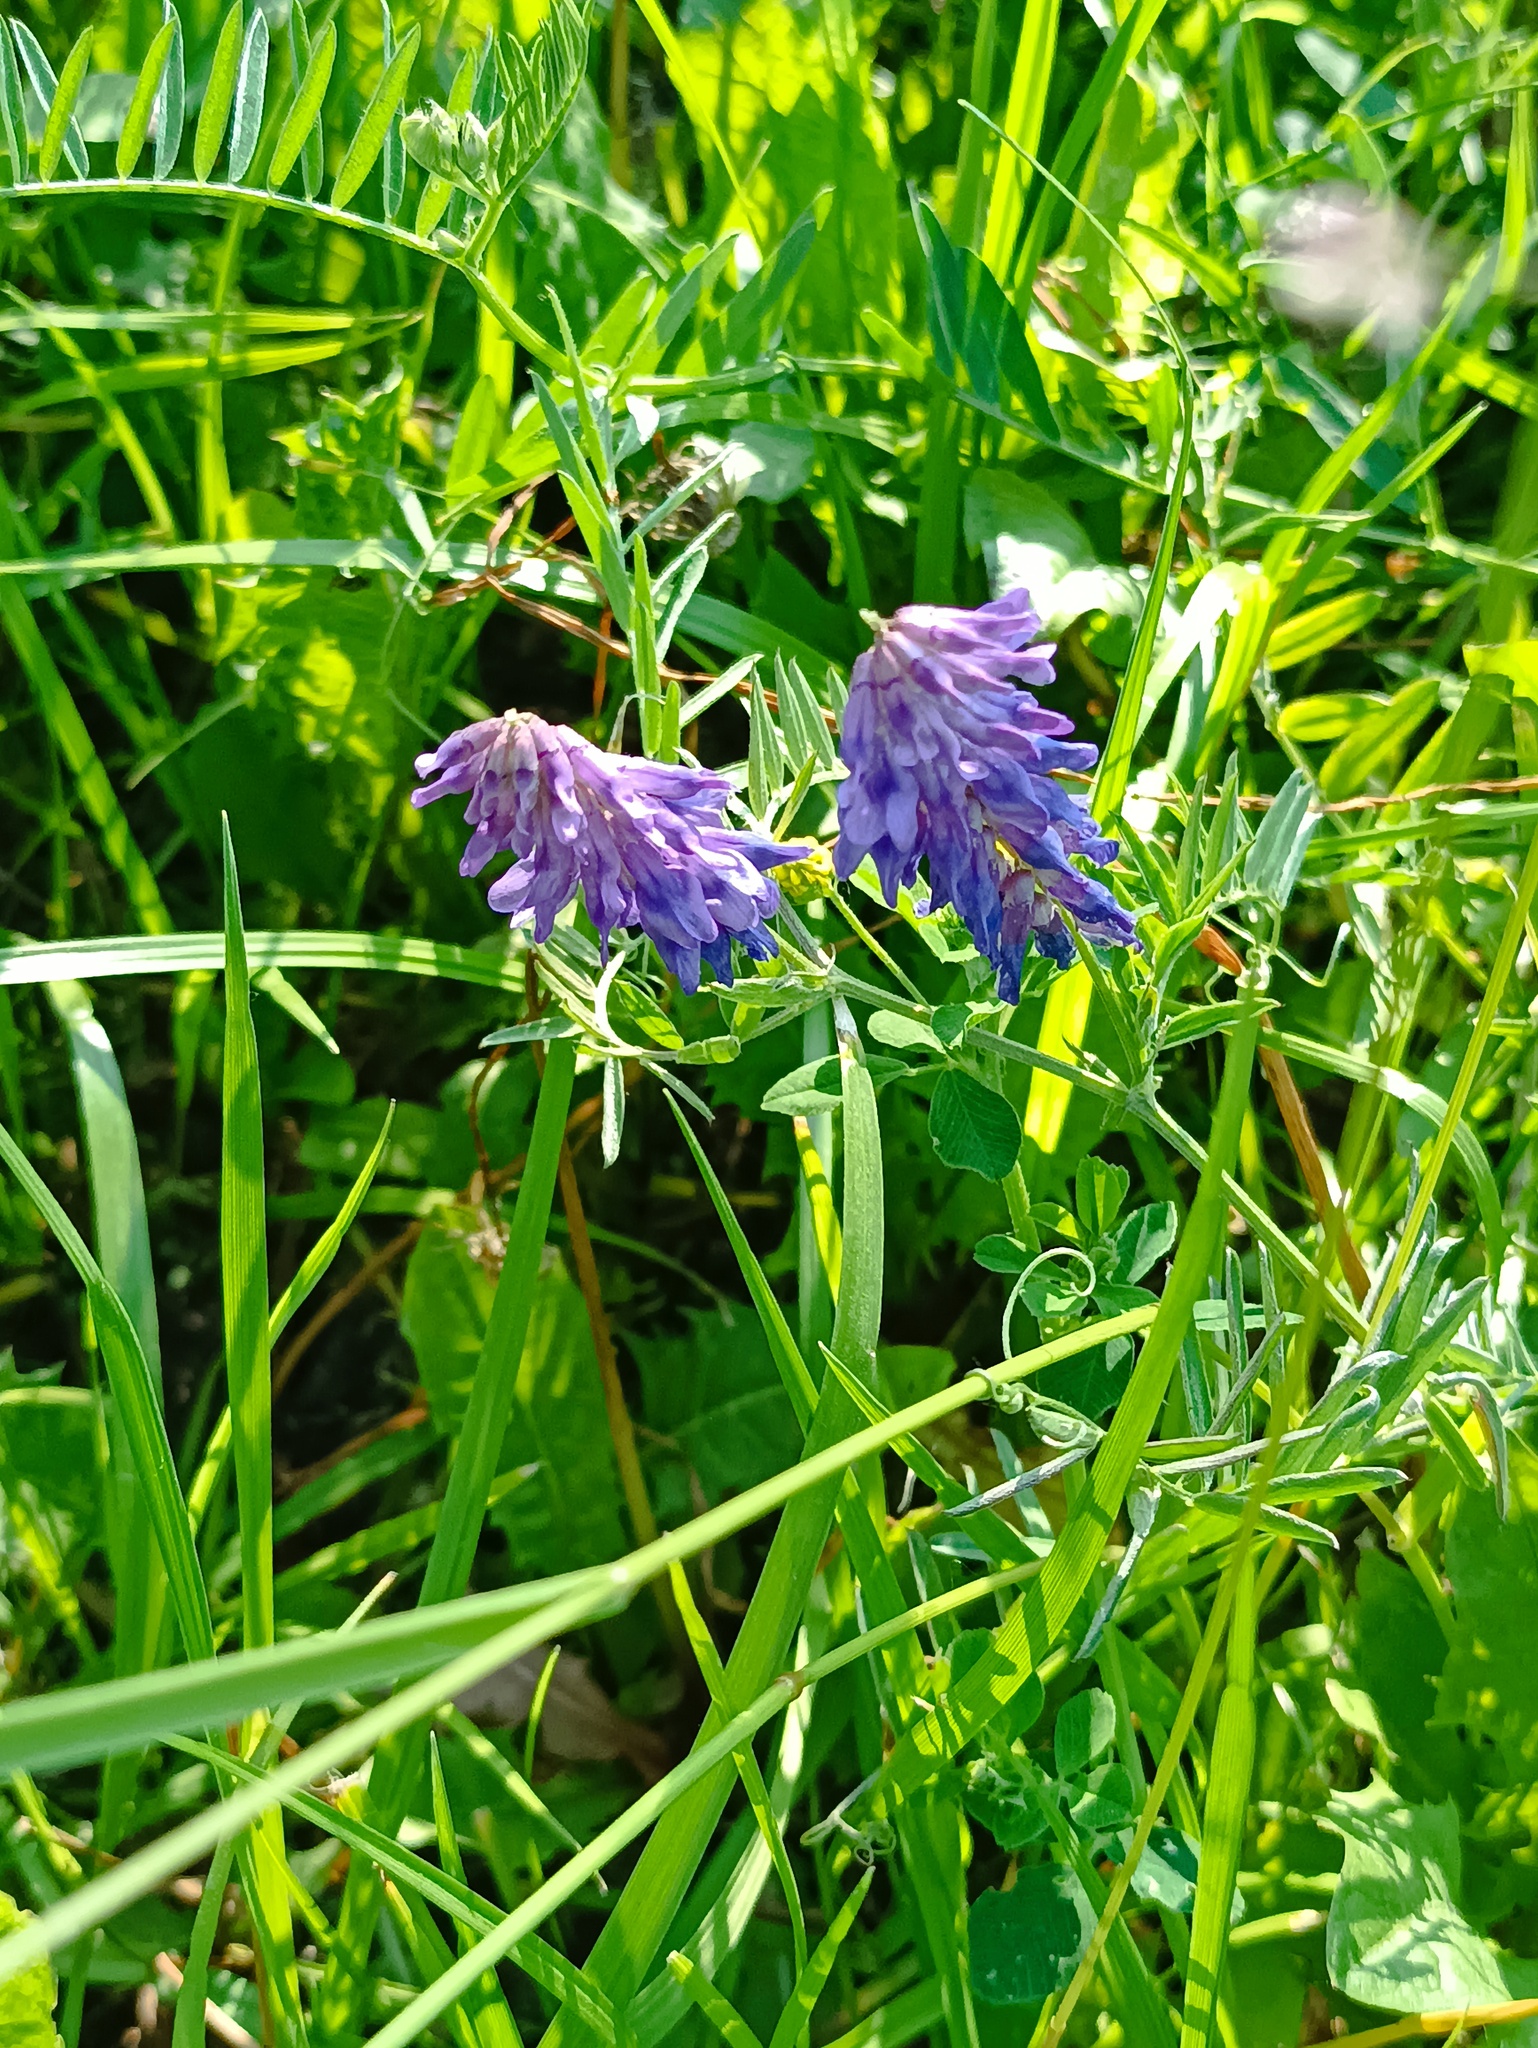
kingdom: Plantae
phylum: Tracheophyta
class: Magnoliopsida
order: Fabales
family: Fabaceae
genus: Vicia
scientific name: Vicia cracca
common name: Bird vetch
